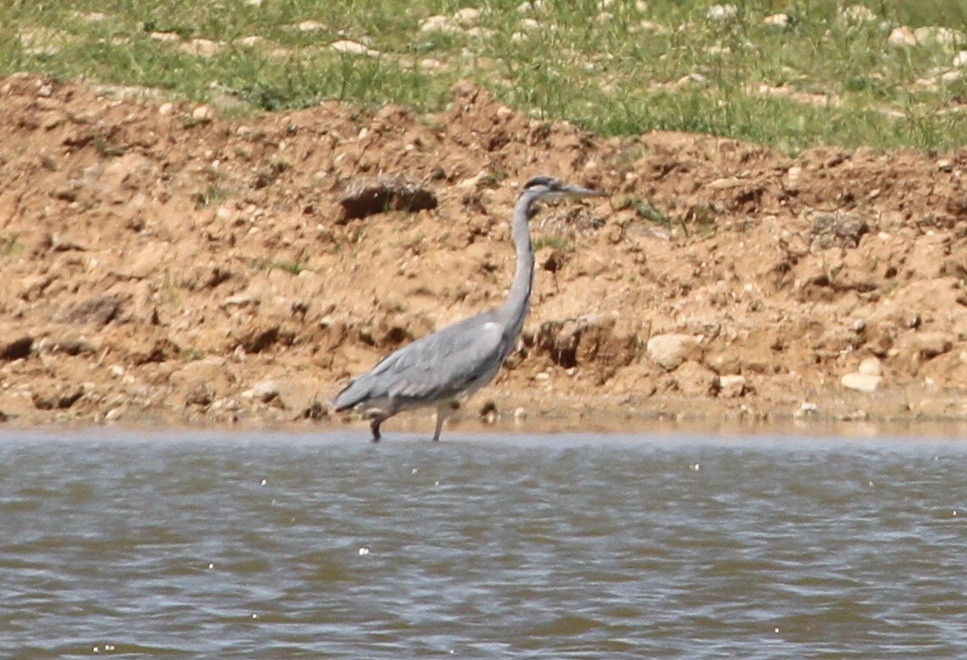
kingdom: Animalia
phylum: Chordata
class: Aves
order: Pelecaniformes
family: Ardeidae
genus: Ardea
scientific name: Ardea cinerea
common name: Grey heron
